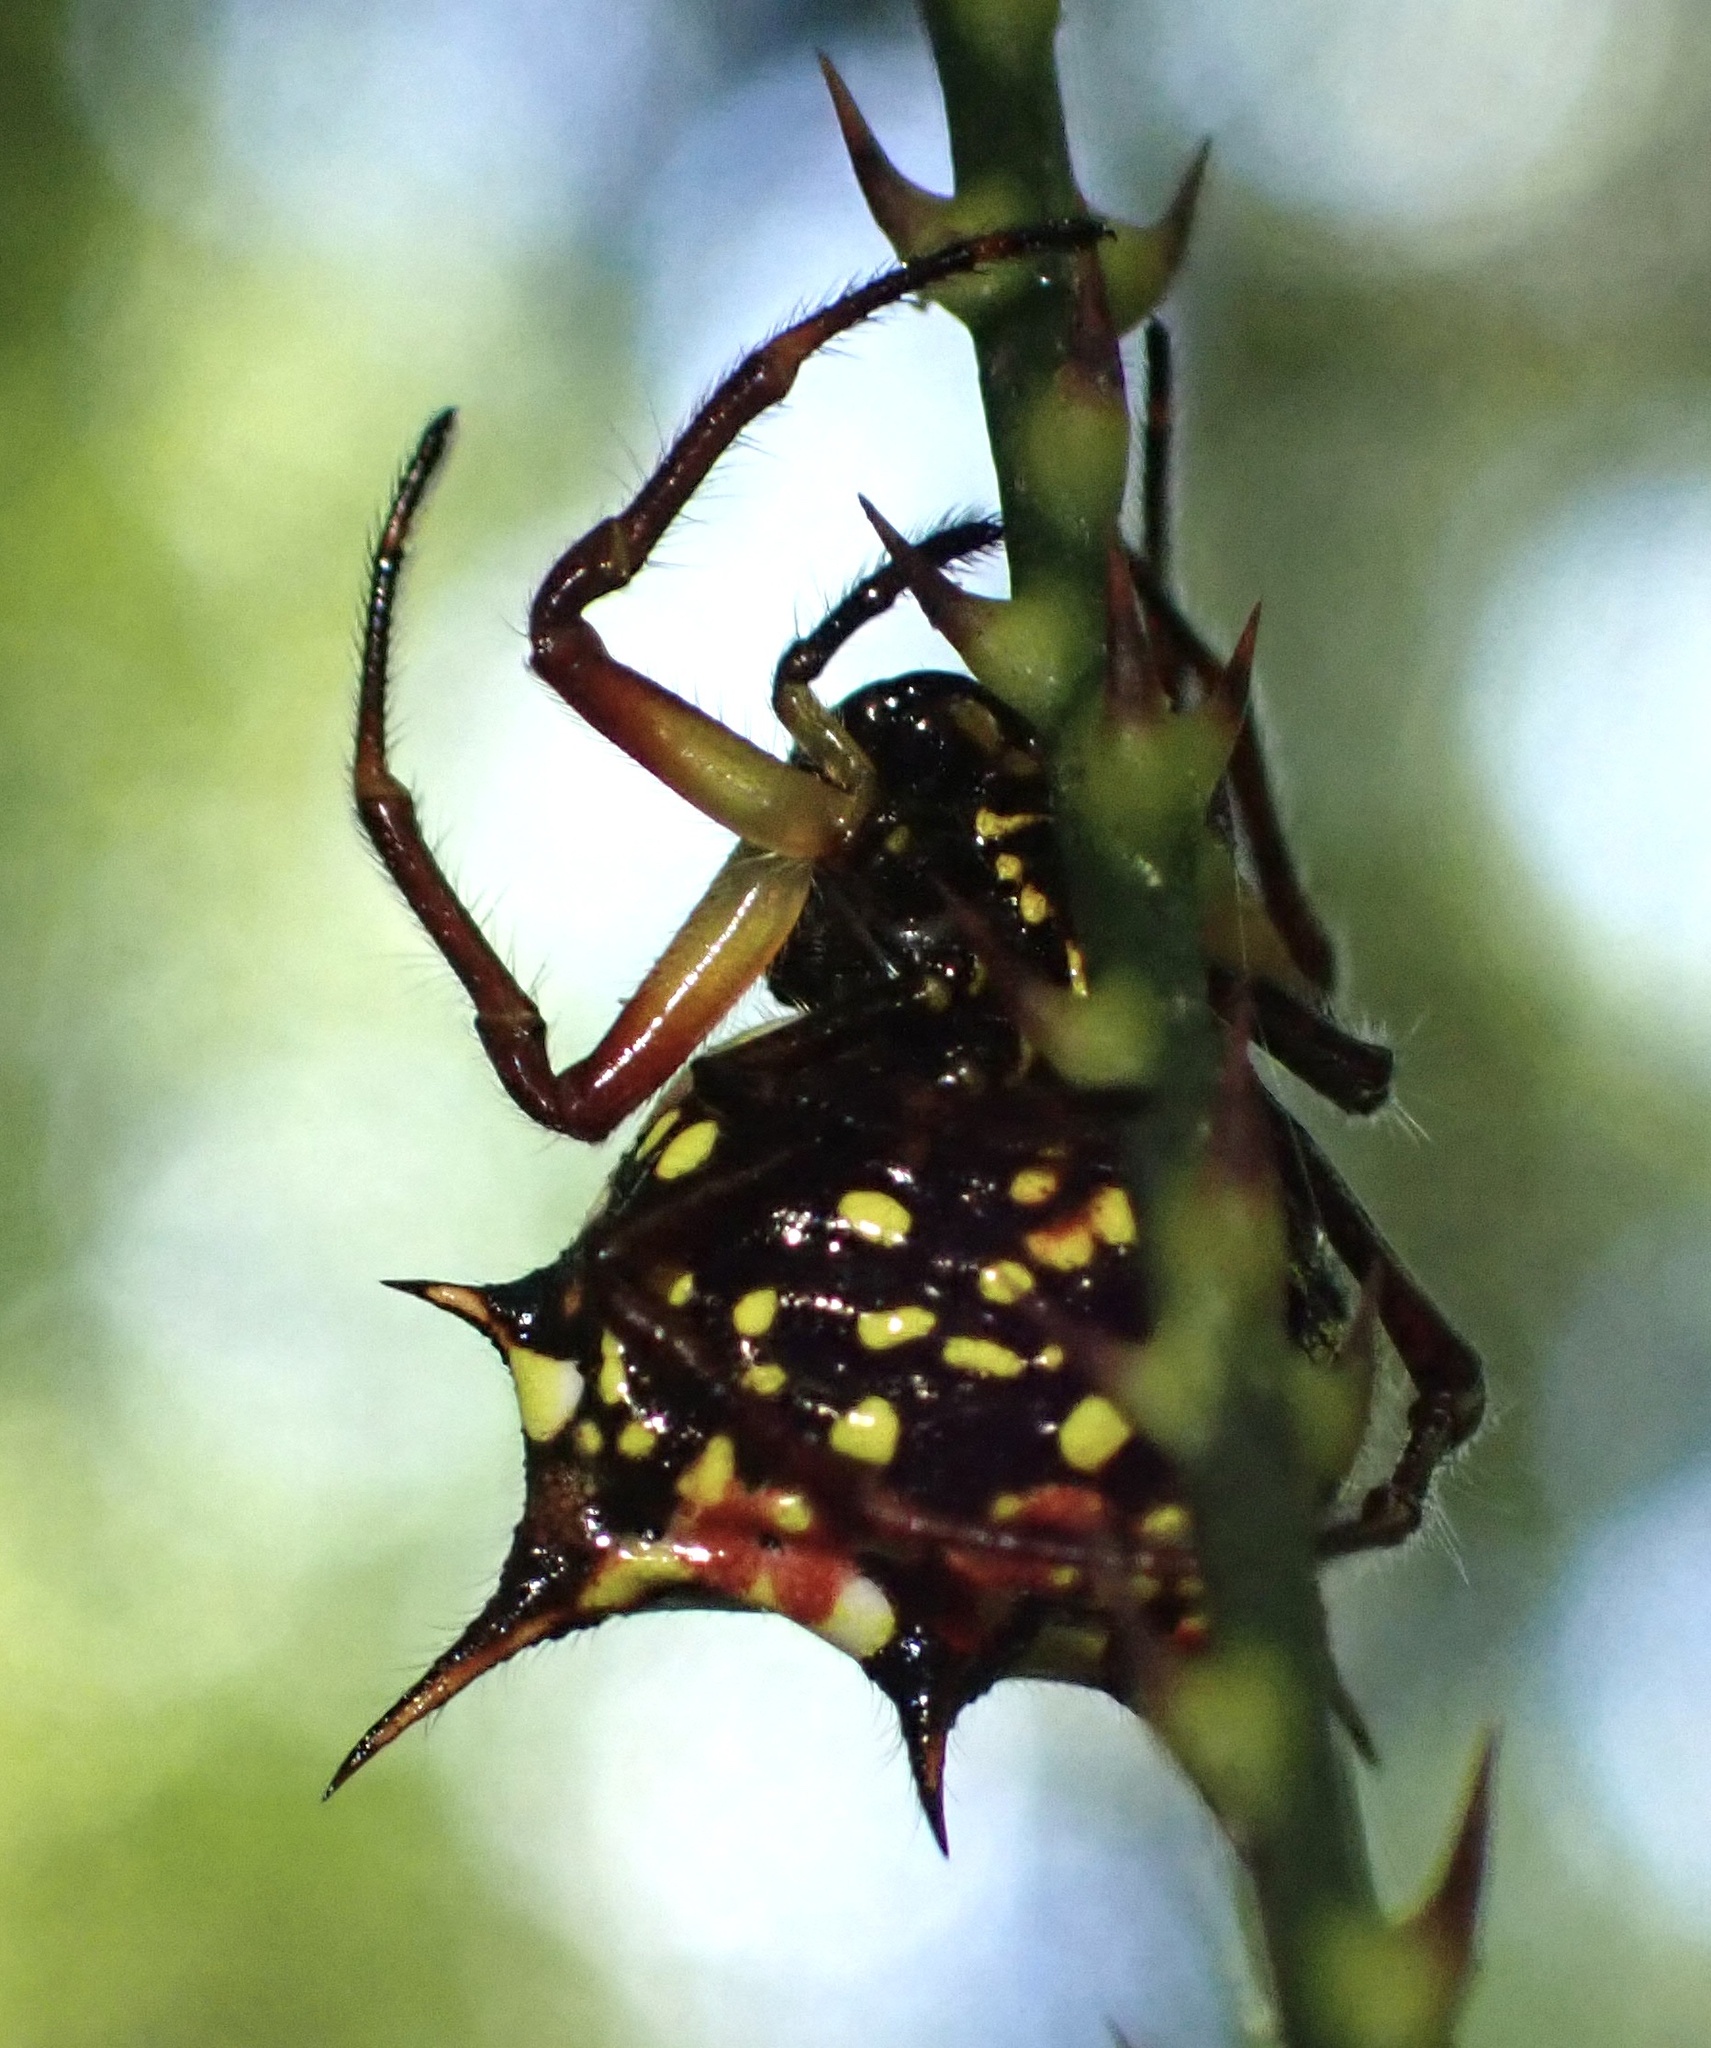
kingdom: Animalia
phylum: Arthropoda
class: Arachnida
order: Araneae
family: Araneidae
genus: Gasteracantha
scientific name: Gasteracantha clavatrix
